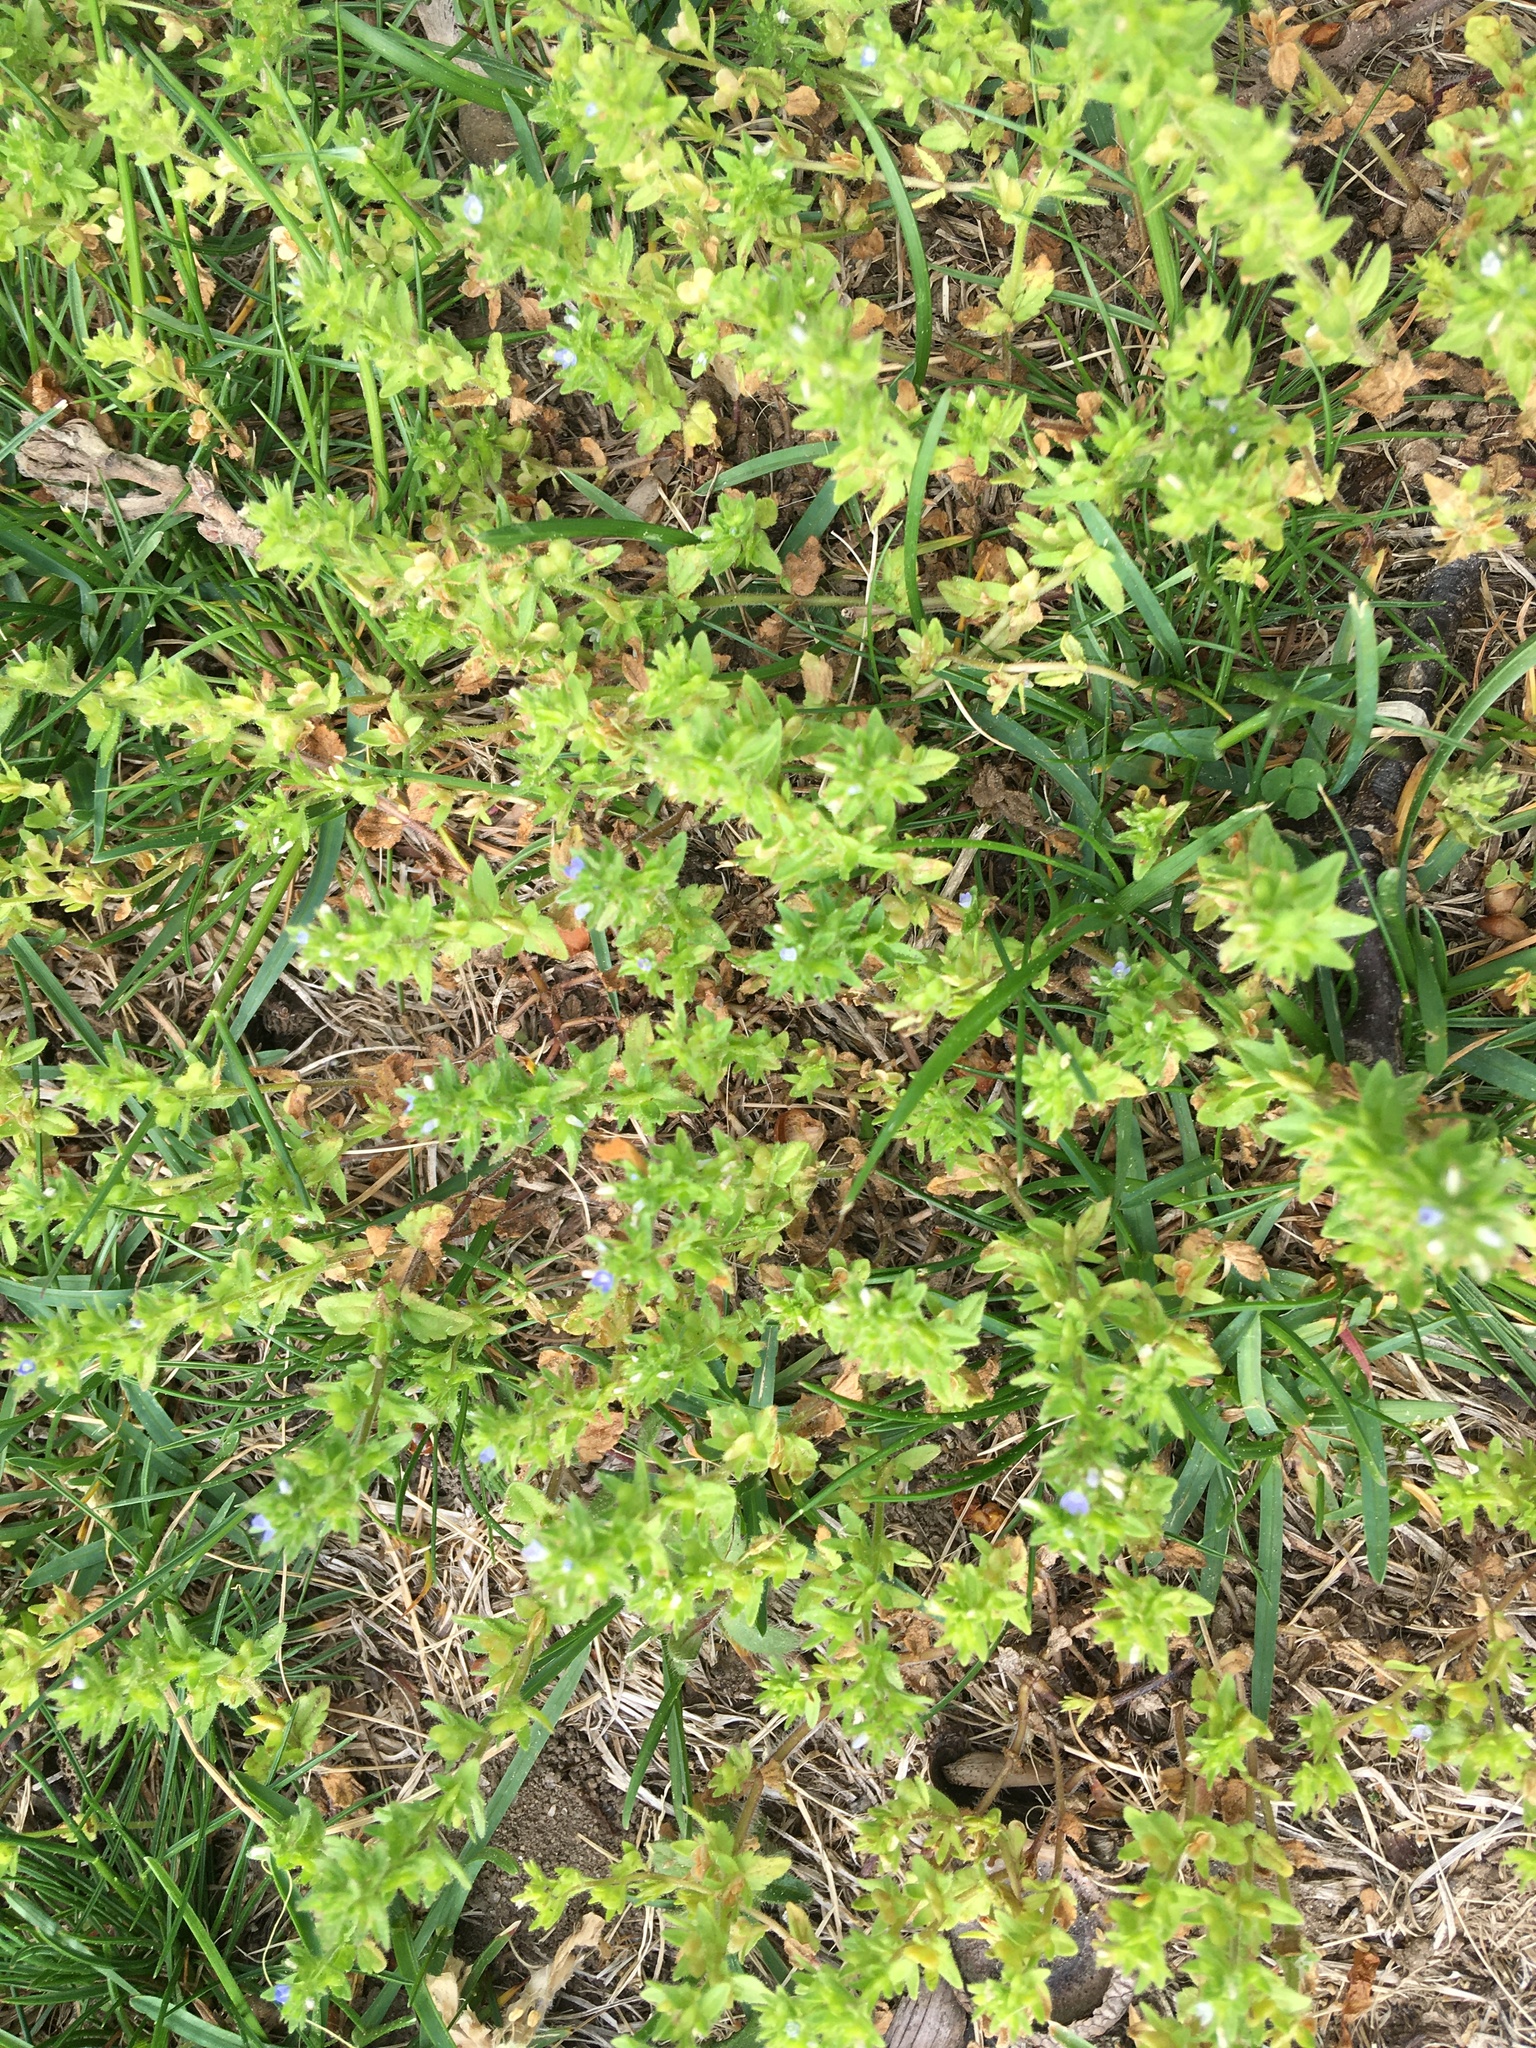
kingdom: Plantae
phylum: Tracheophyta
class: Magnoliopsida
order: Lamiales
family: Plantaginaceae
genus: Veronica
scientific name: Veronica arvensis
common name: Corn speedwell
